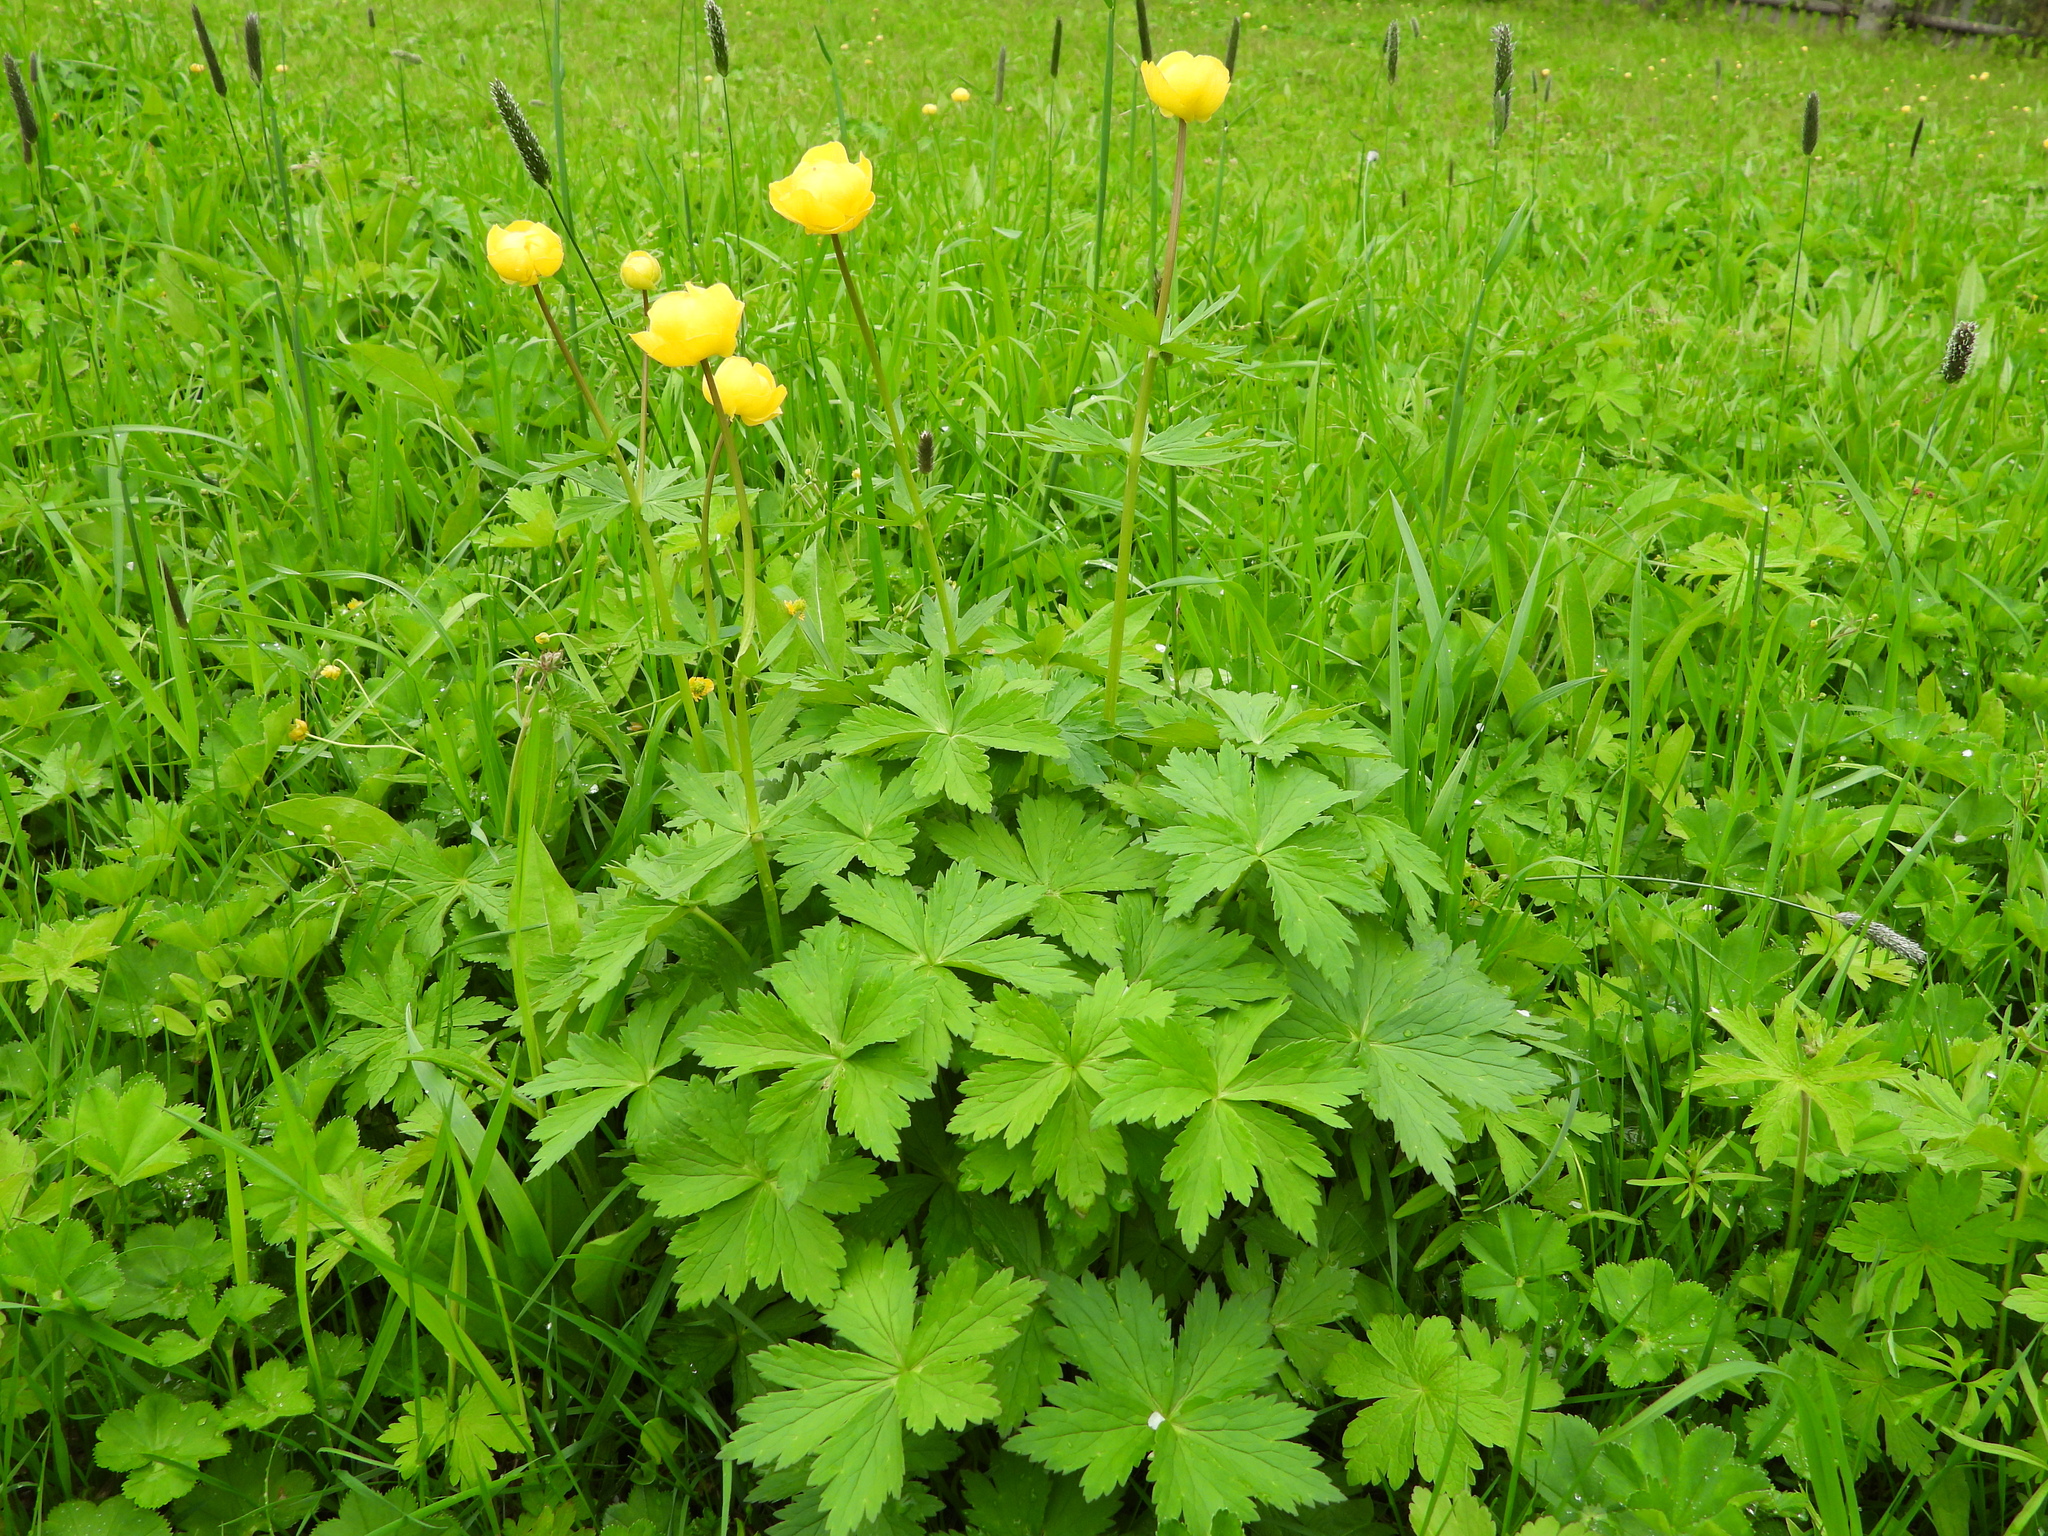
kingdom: Plantae
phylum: Tracheophyta
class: Magnoliopsida
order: Ranunculales
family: Ranunculaceae
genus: Trollius
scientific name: Trollius europaeus
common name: European globeflower
